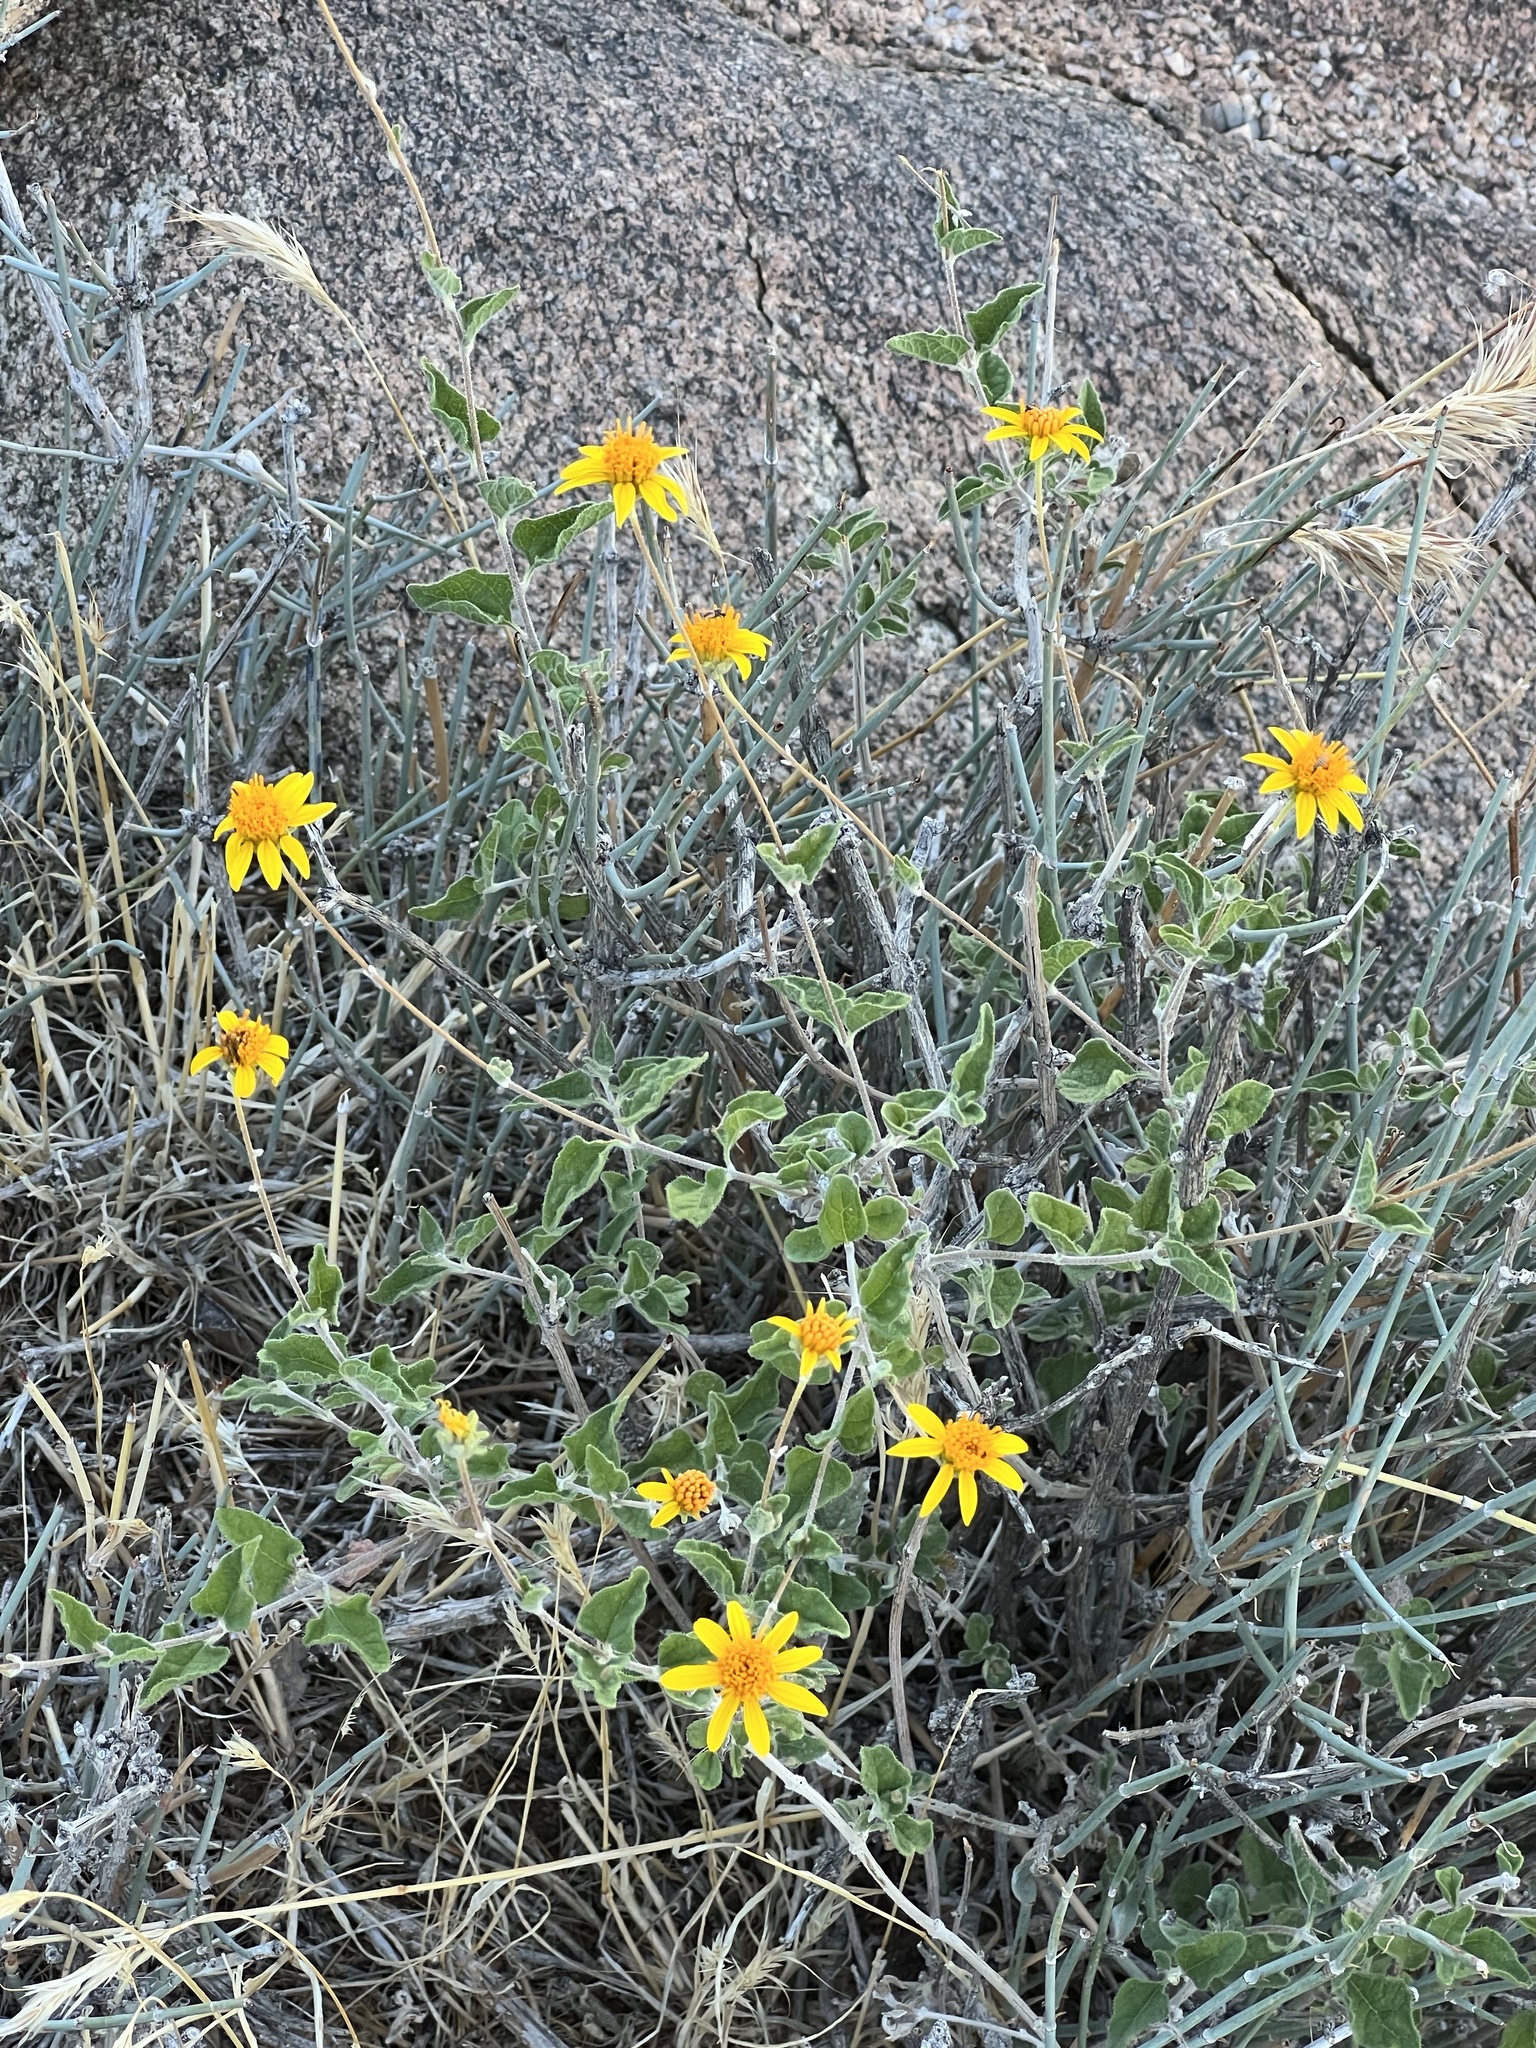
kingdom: Plantae
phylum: Tracheophyta
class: Magnoliopsida
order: Asterales
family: Asteraceae
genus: Encelia
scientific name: Encelia virginensis
